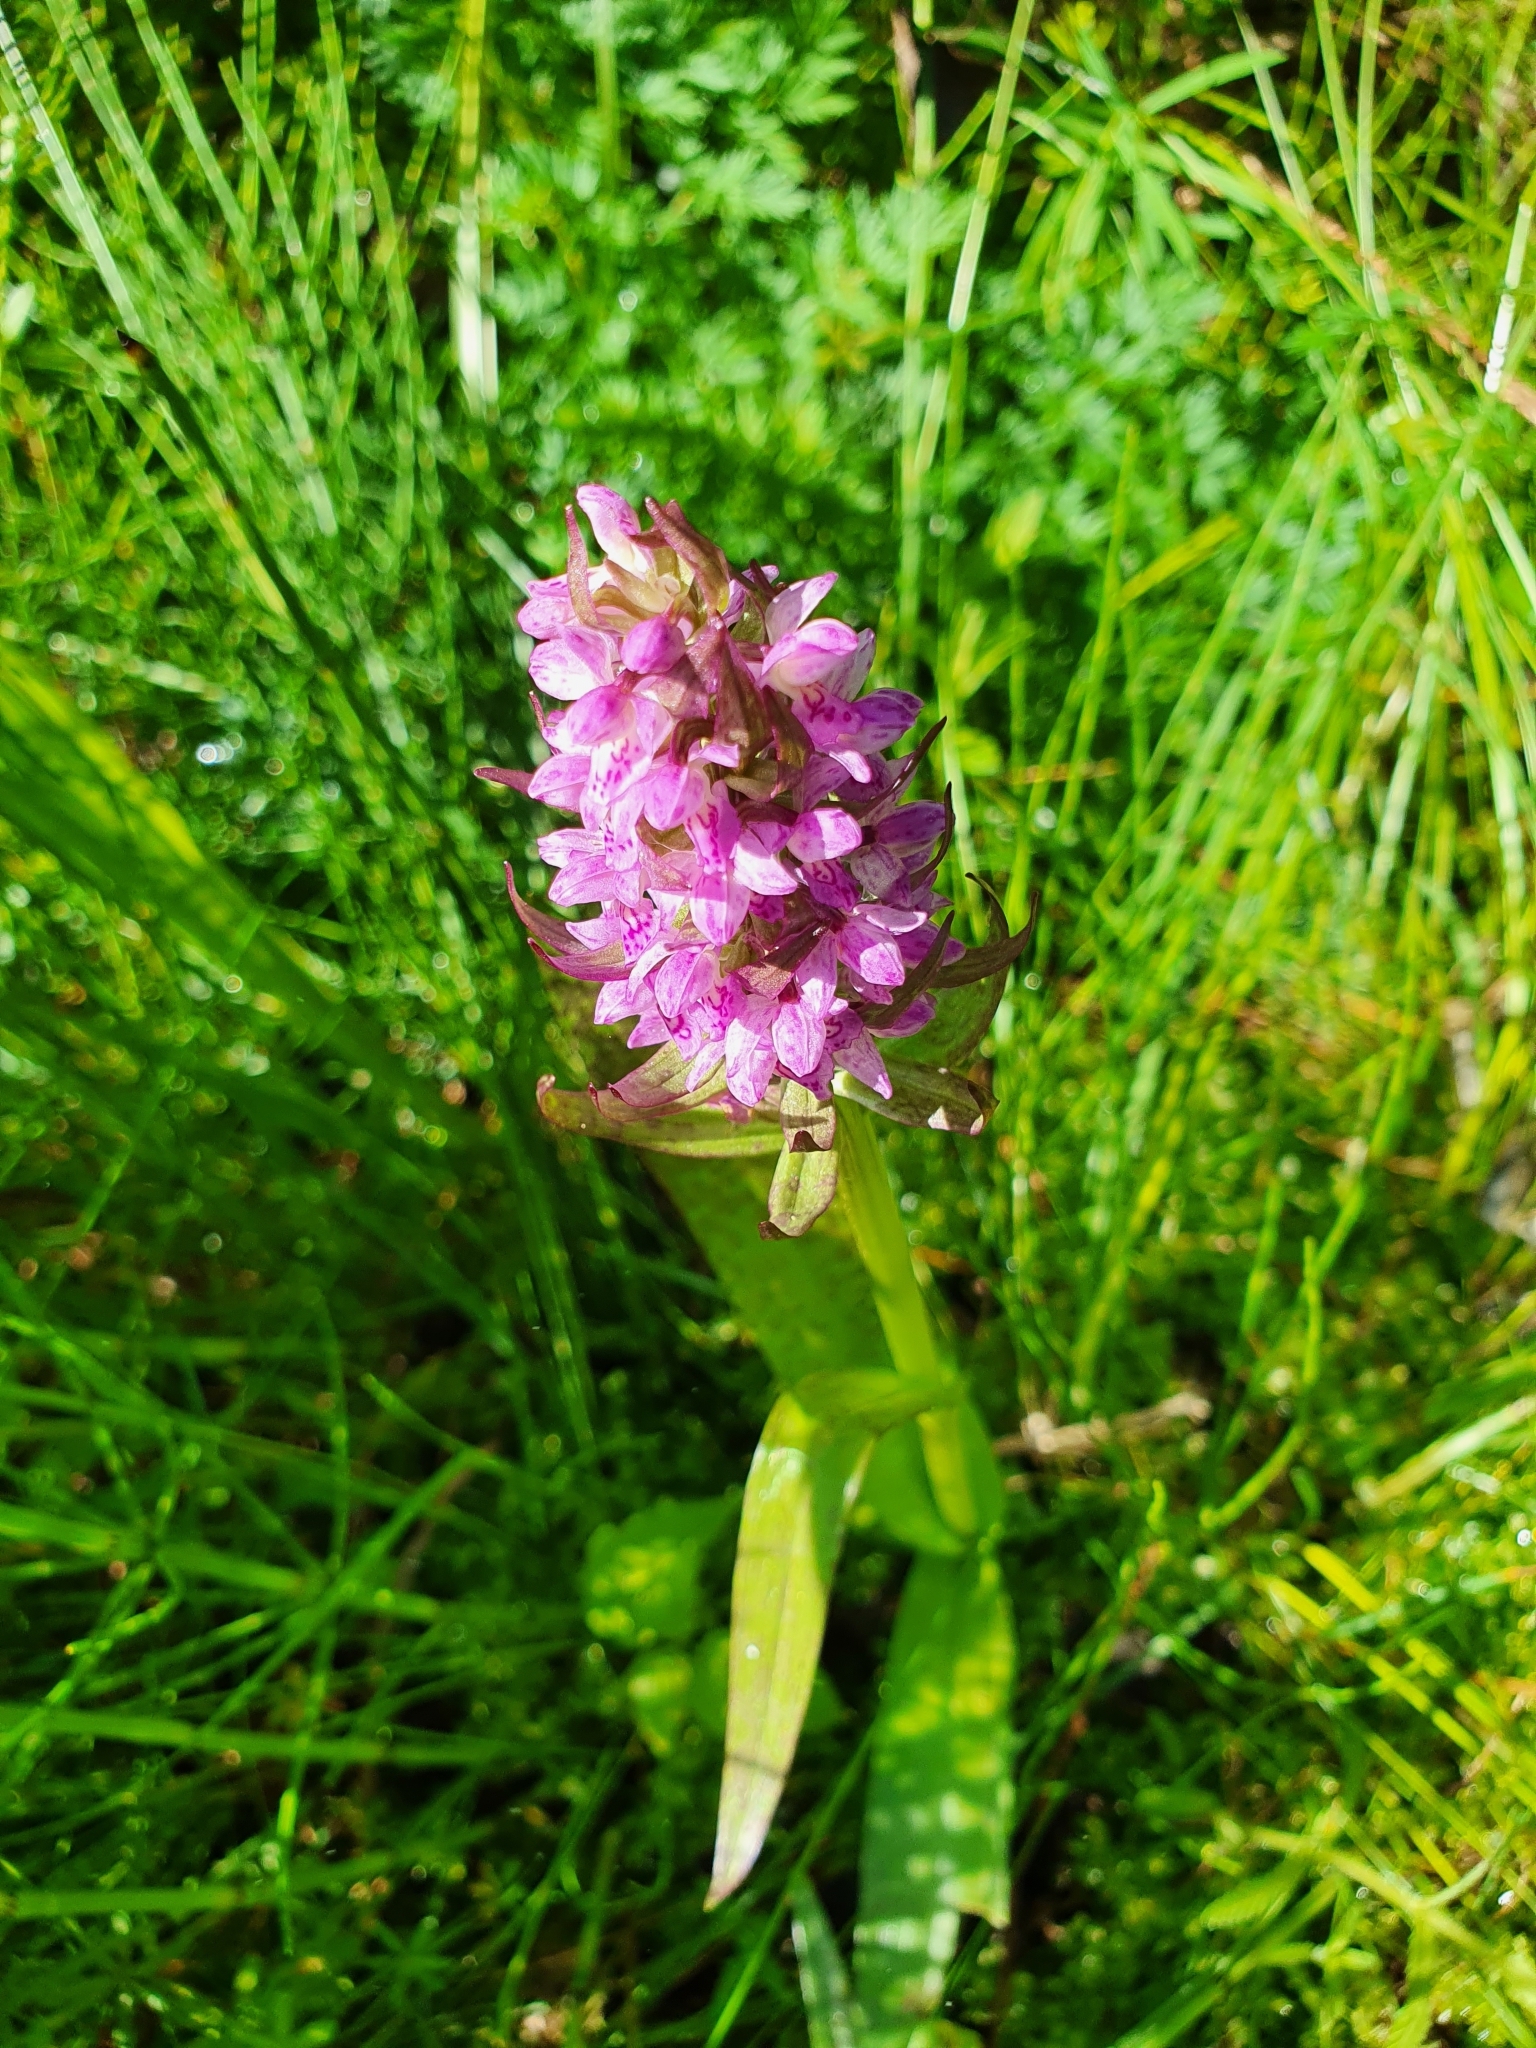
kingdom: Plantae
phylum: Tracheophyta
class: Liliopsida
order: Asparagales
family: Orchidaceae
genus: Dactylorhiza
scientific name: Dactylorhiza incarnata
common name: Early marsh-orchid
